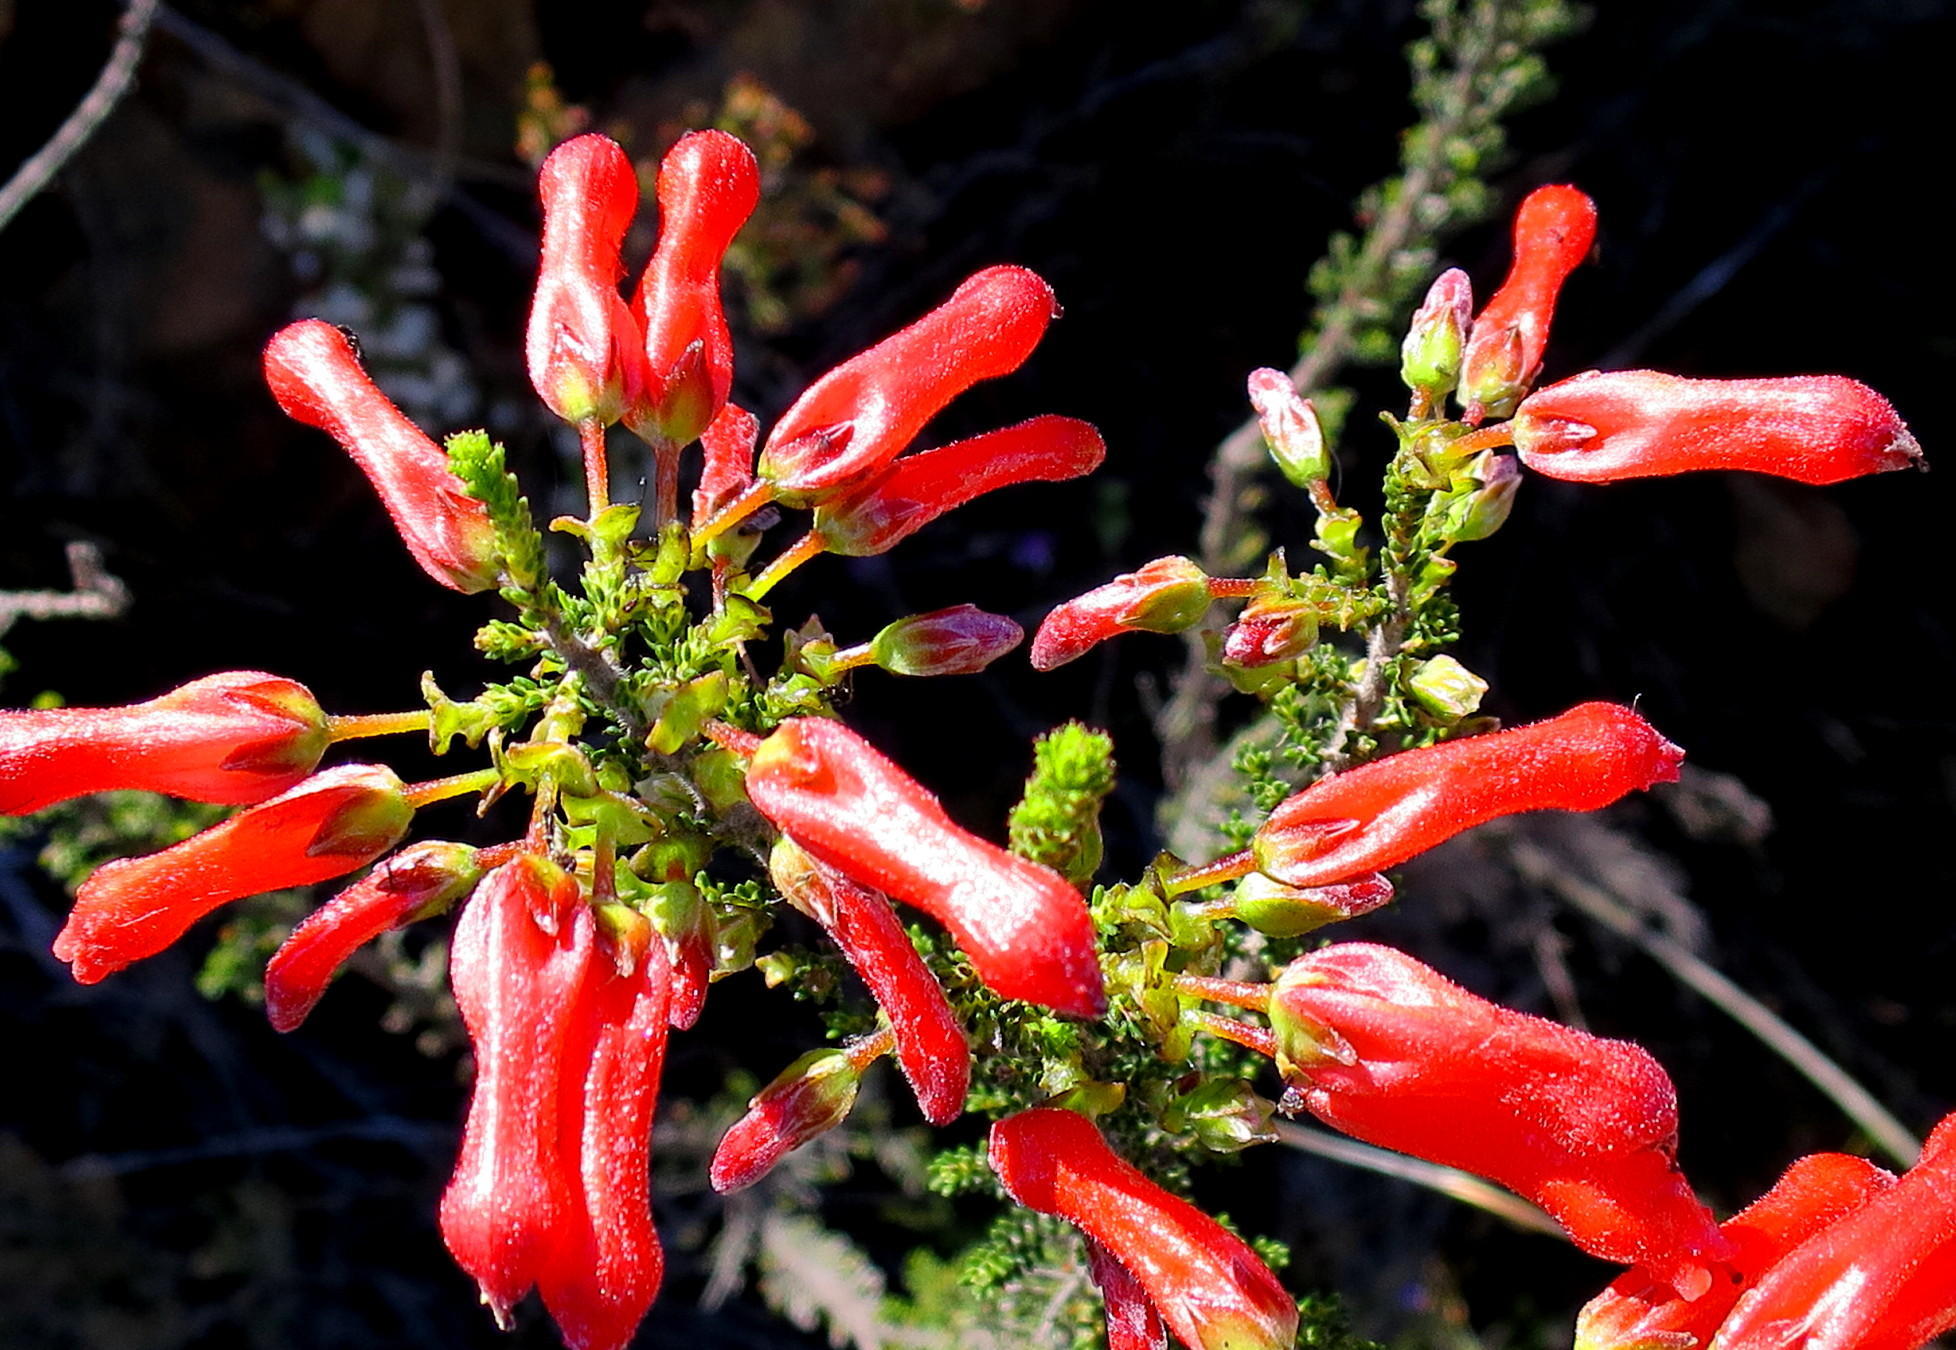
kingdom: Plantae
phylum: Tracheophyta
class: Magnoliopsida
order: Ericales
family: Ericaceae
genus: Erica
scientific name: Erica inordinata
